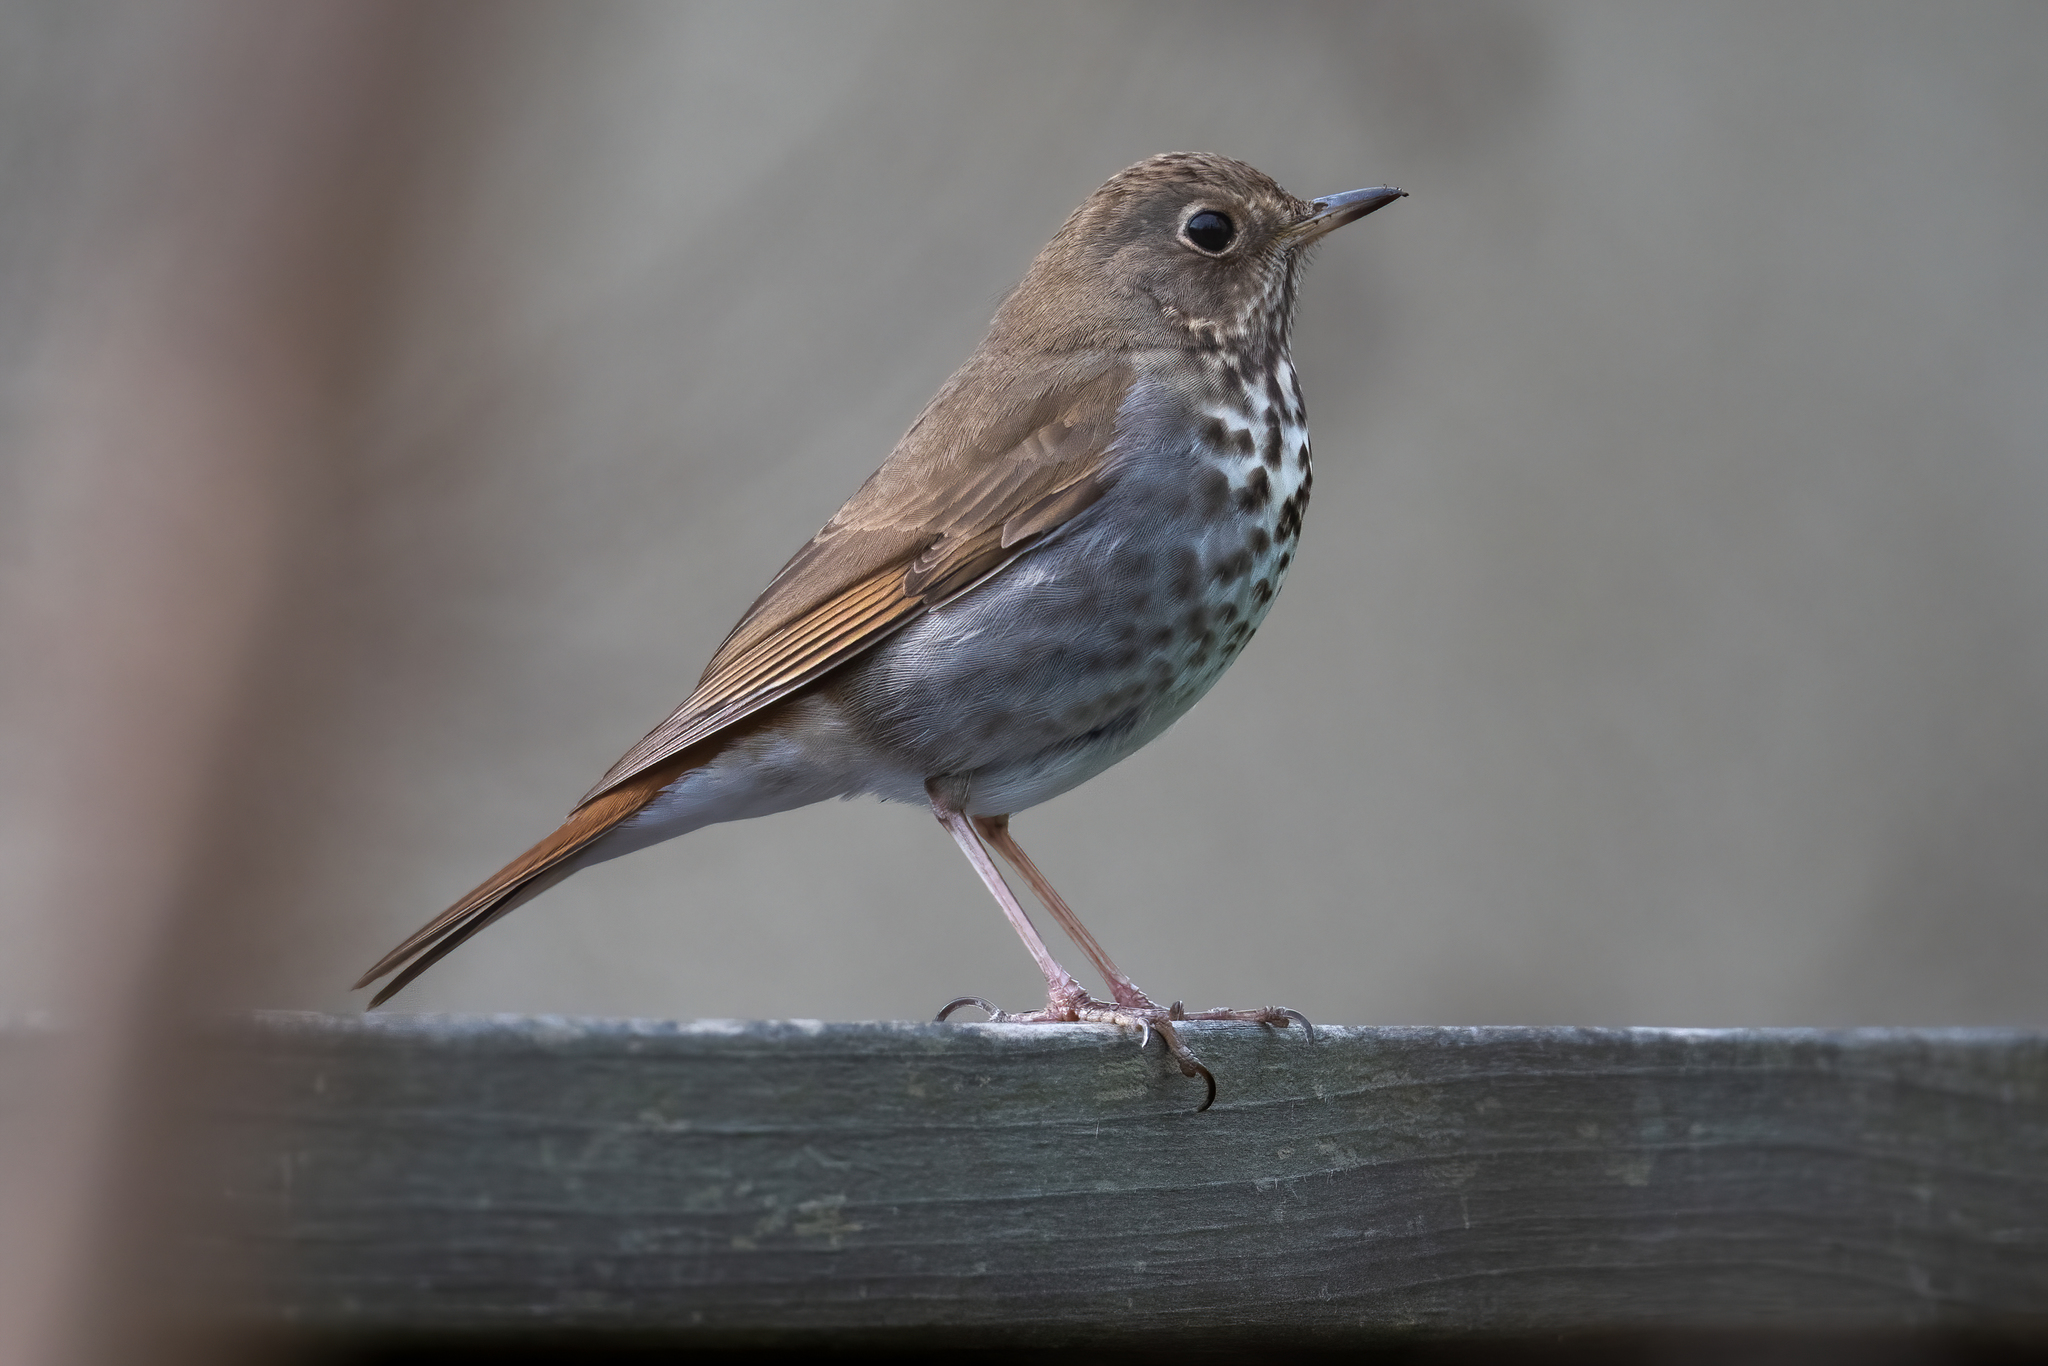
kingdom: Animalia
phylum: Chordata
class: Aves
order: Passeriformes
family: Turdidae
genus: Catharus
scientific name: Catharus guttatus
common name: Hermit thrush
